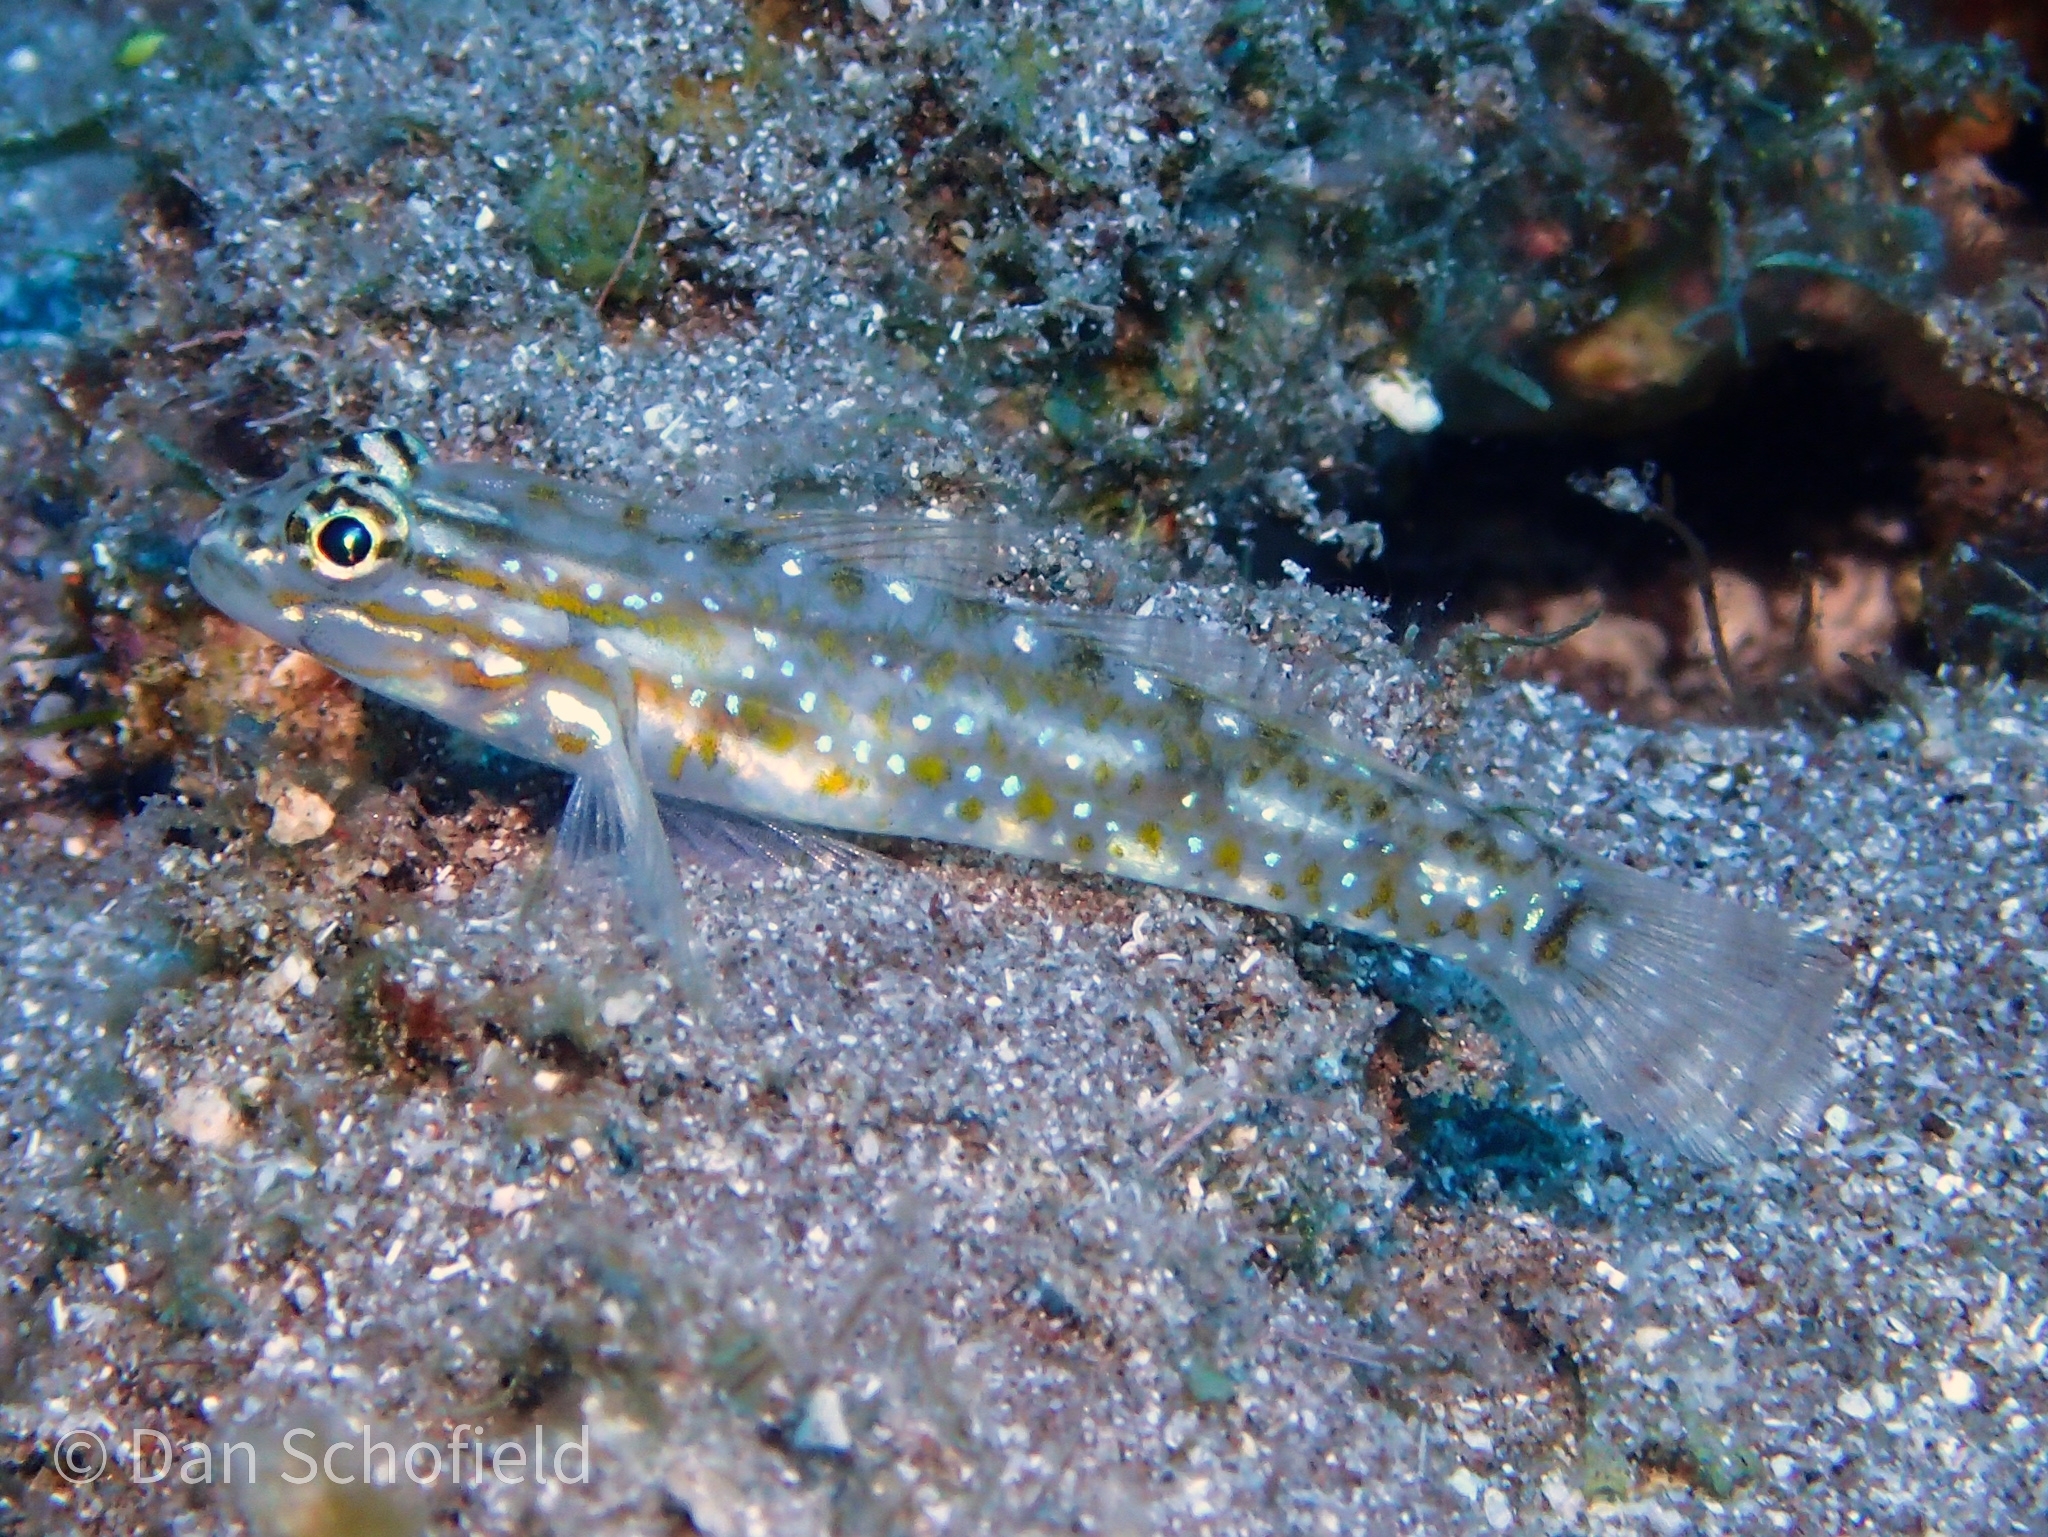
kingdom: Animalia
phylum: Chordata
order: Perciformes
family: Gobiidae
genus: Coryphopterus
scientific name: Coryphopterus venezuelae
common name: Sand-canyon goby
